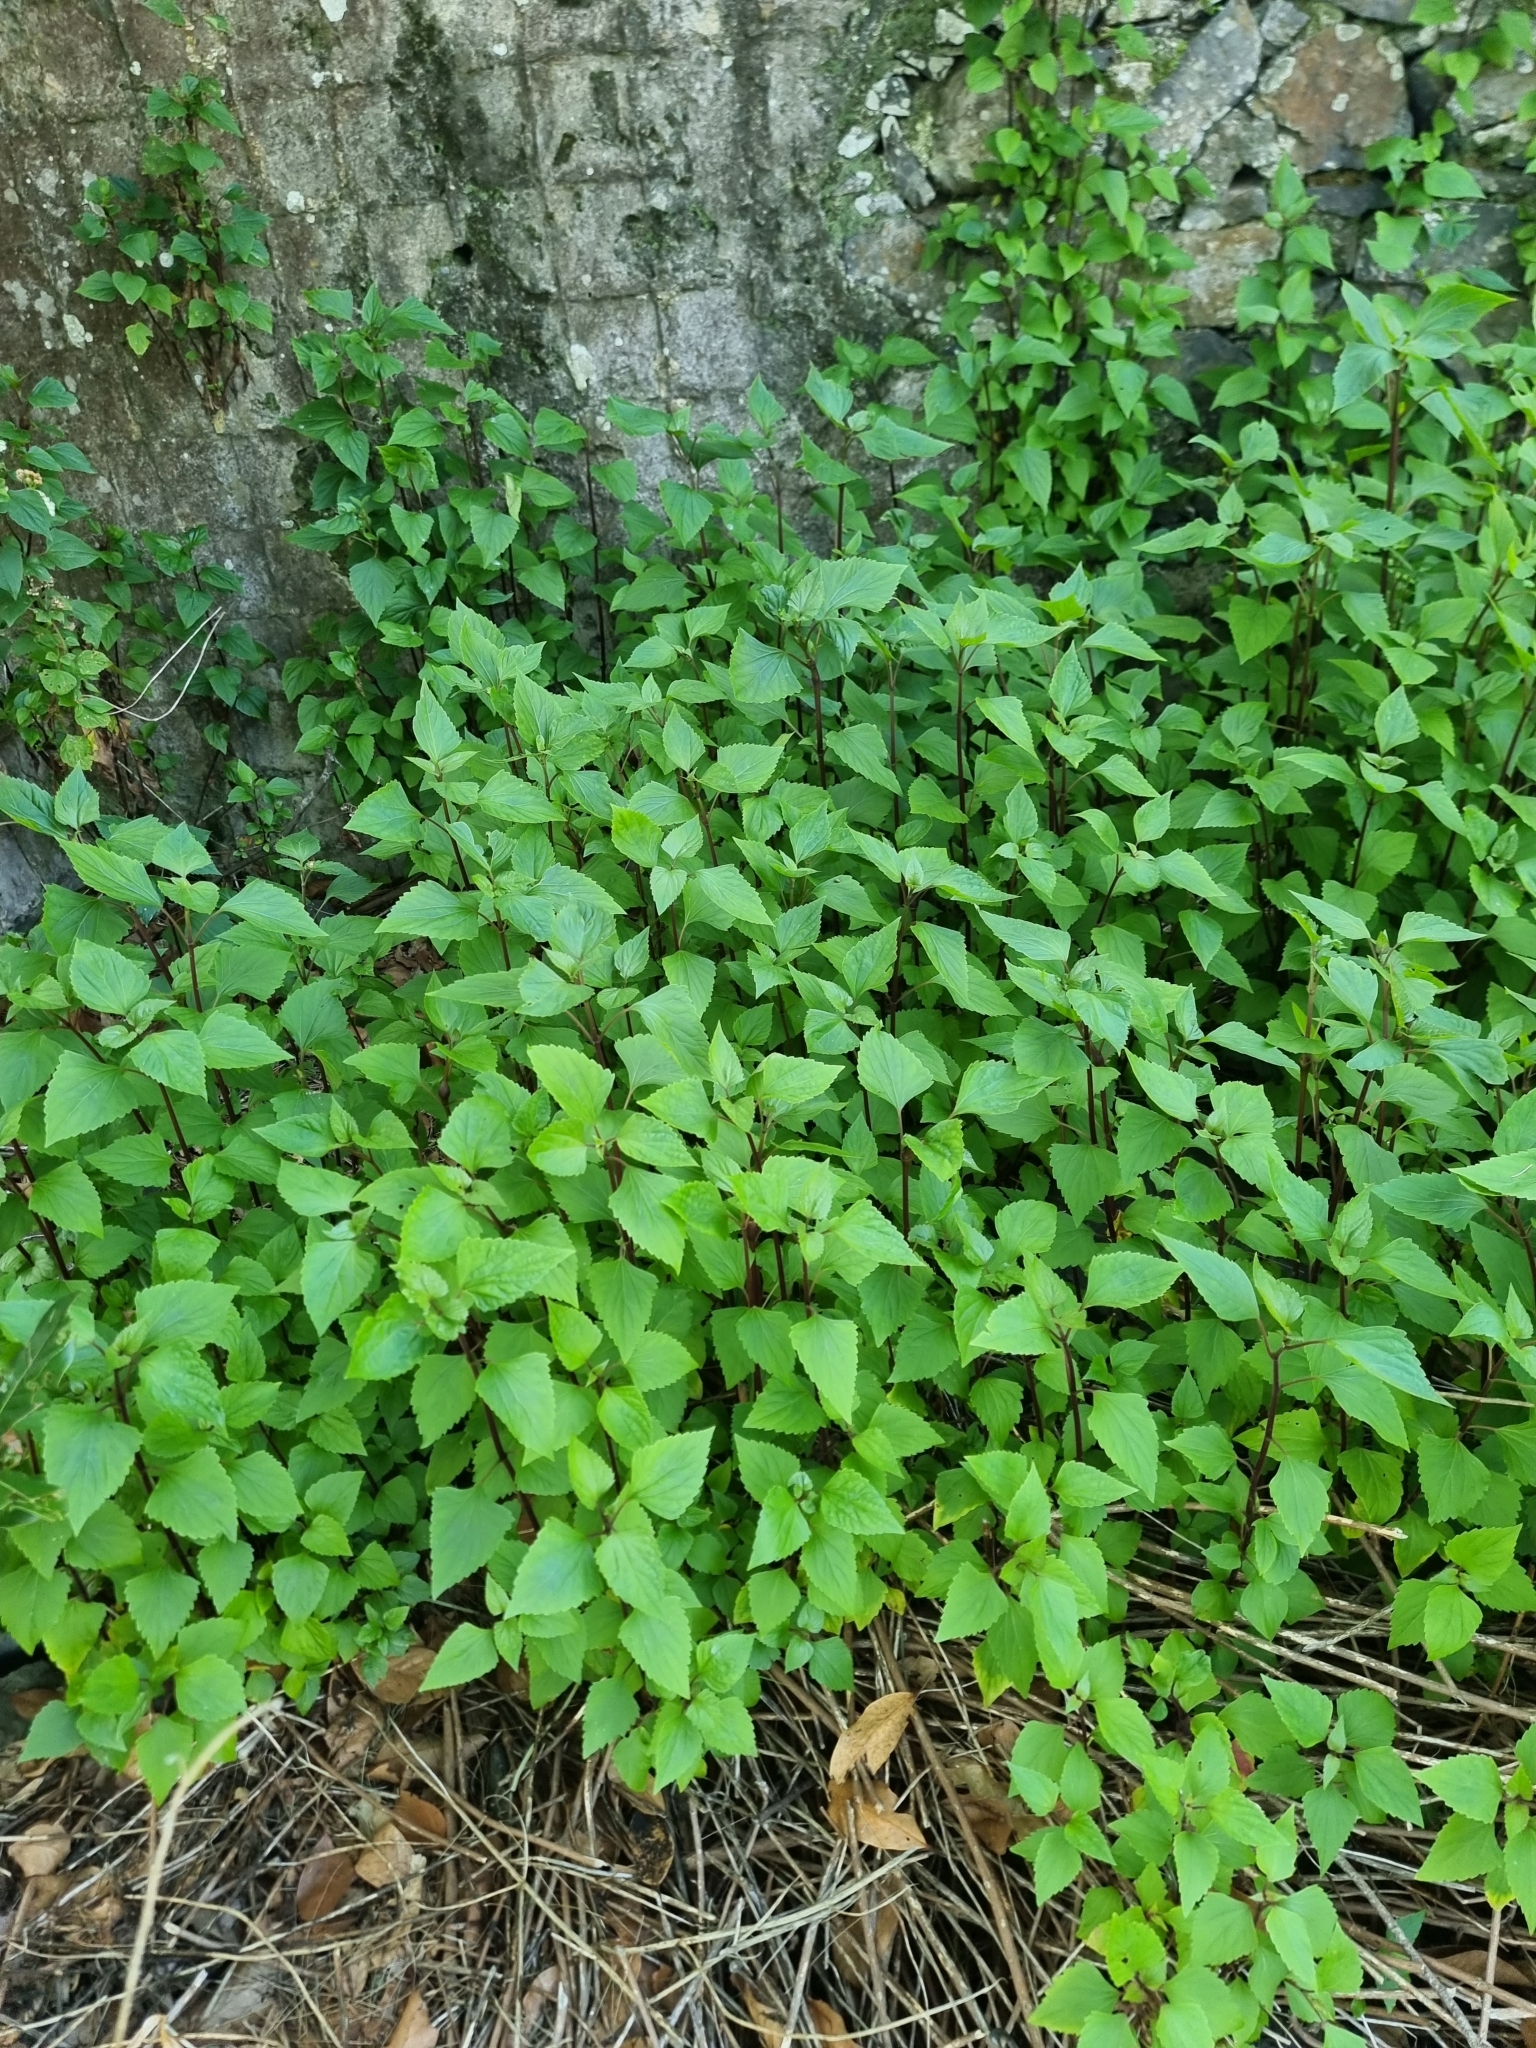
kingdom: Plantae
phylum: Tracheophyta
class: Magnoliopsida
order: Asterales
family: Asteraceae
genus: Ageratina
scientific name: Ageratina adenophora
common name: Sticky snakeroot
